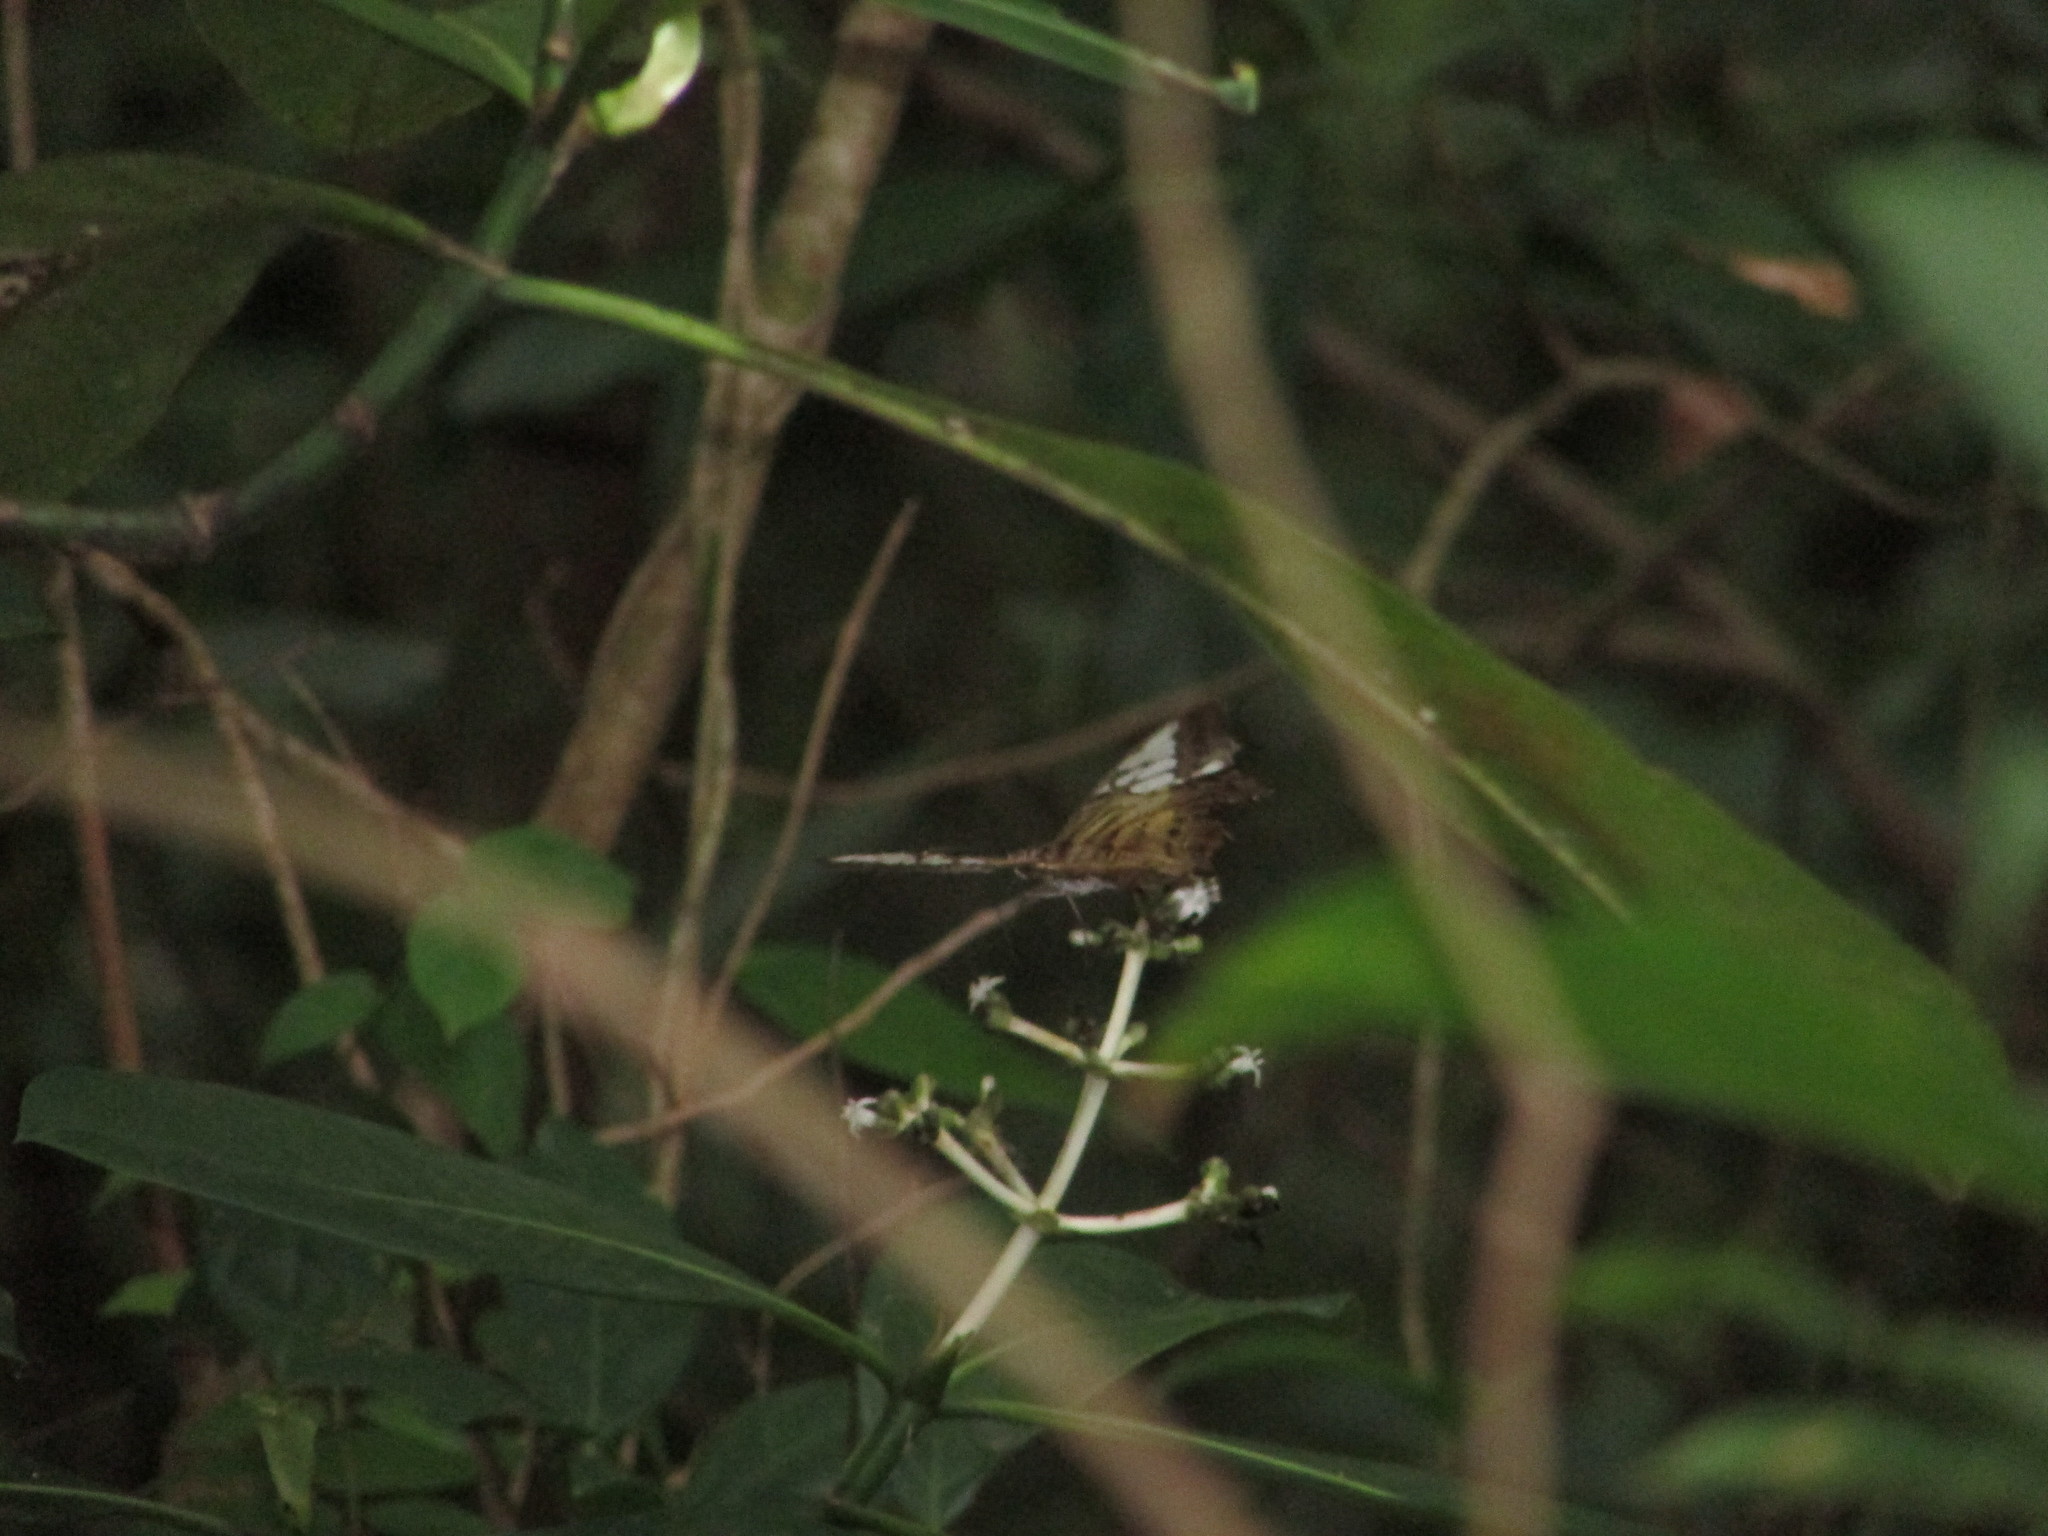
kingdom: Animalia
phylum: Arthropoda
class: Insecta
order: Lepidoptera
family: Nymphalidae
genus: Kallima
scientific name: Kallima sylvia
